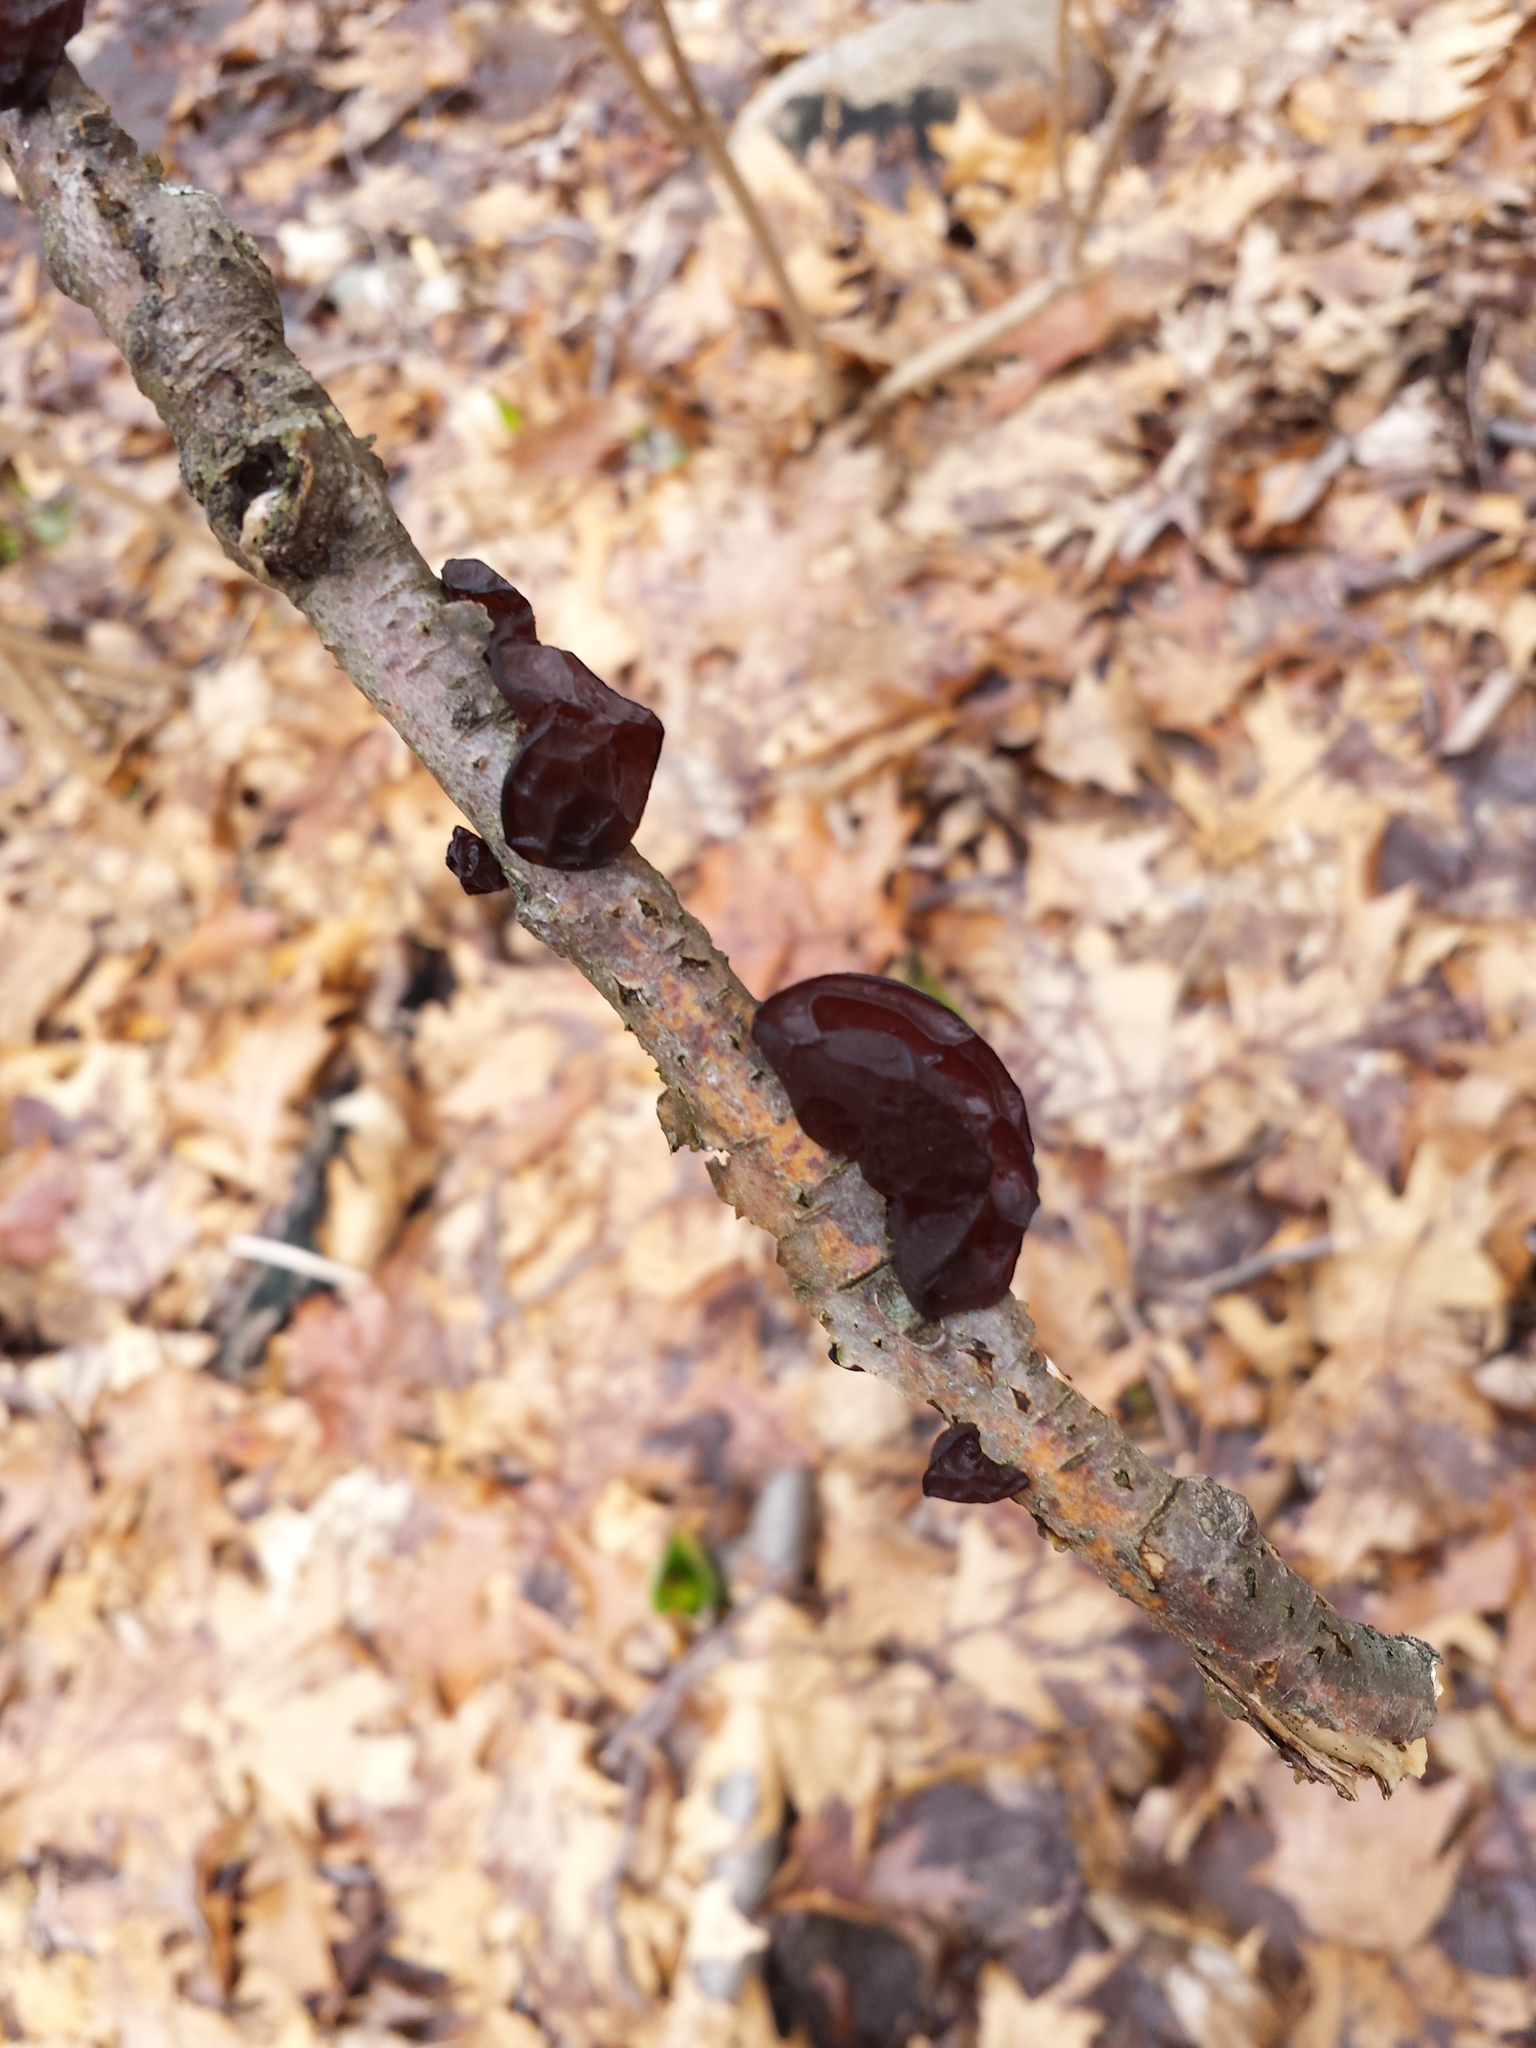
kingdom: Fungi
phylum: Basidiomycota
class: Agaricomycetes
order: Auriculariales
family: Auriculariaceae
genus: Exidia
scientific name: Exidia
